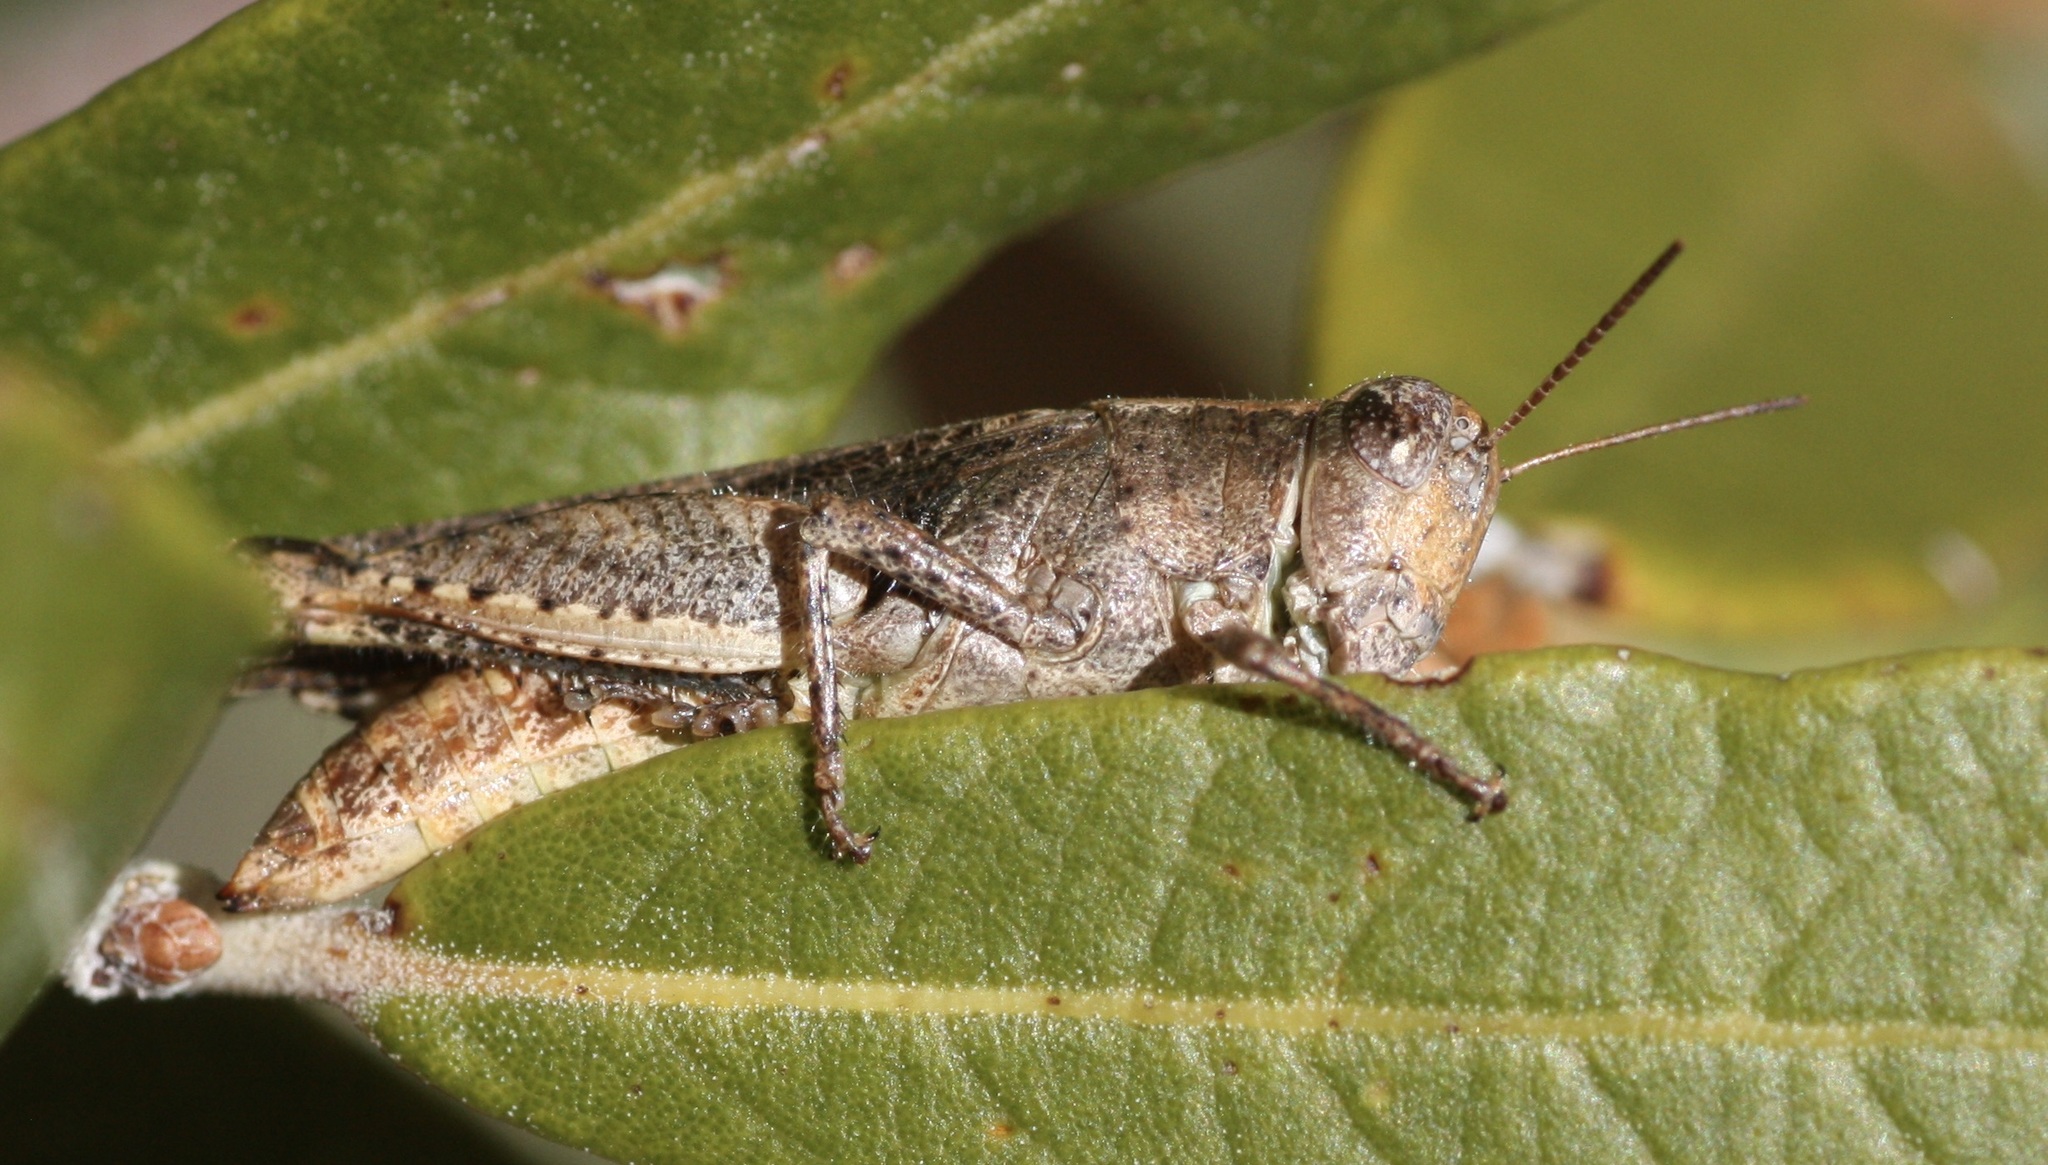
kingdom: Animalia
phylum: Arthropoda
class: Insecta
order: Orthoptera
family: Acrididae
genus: Aidemona
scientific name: Aidemona azteca
